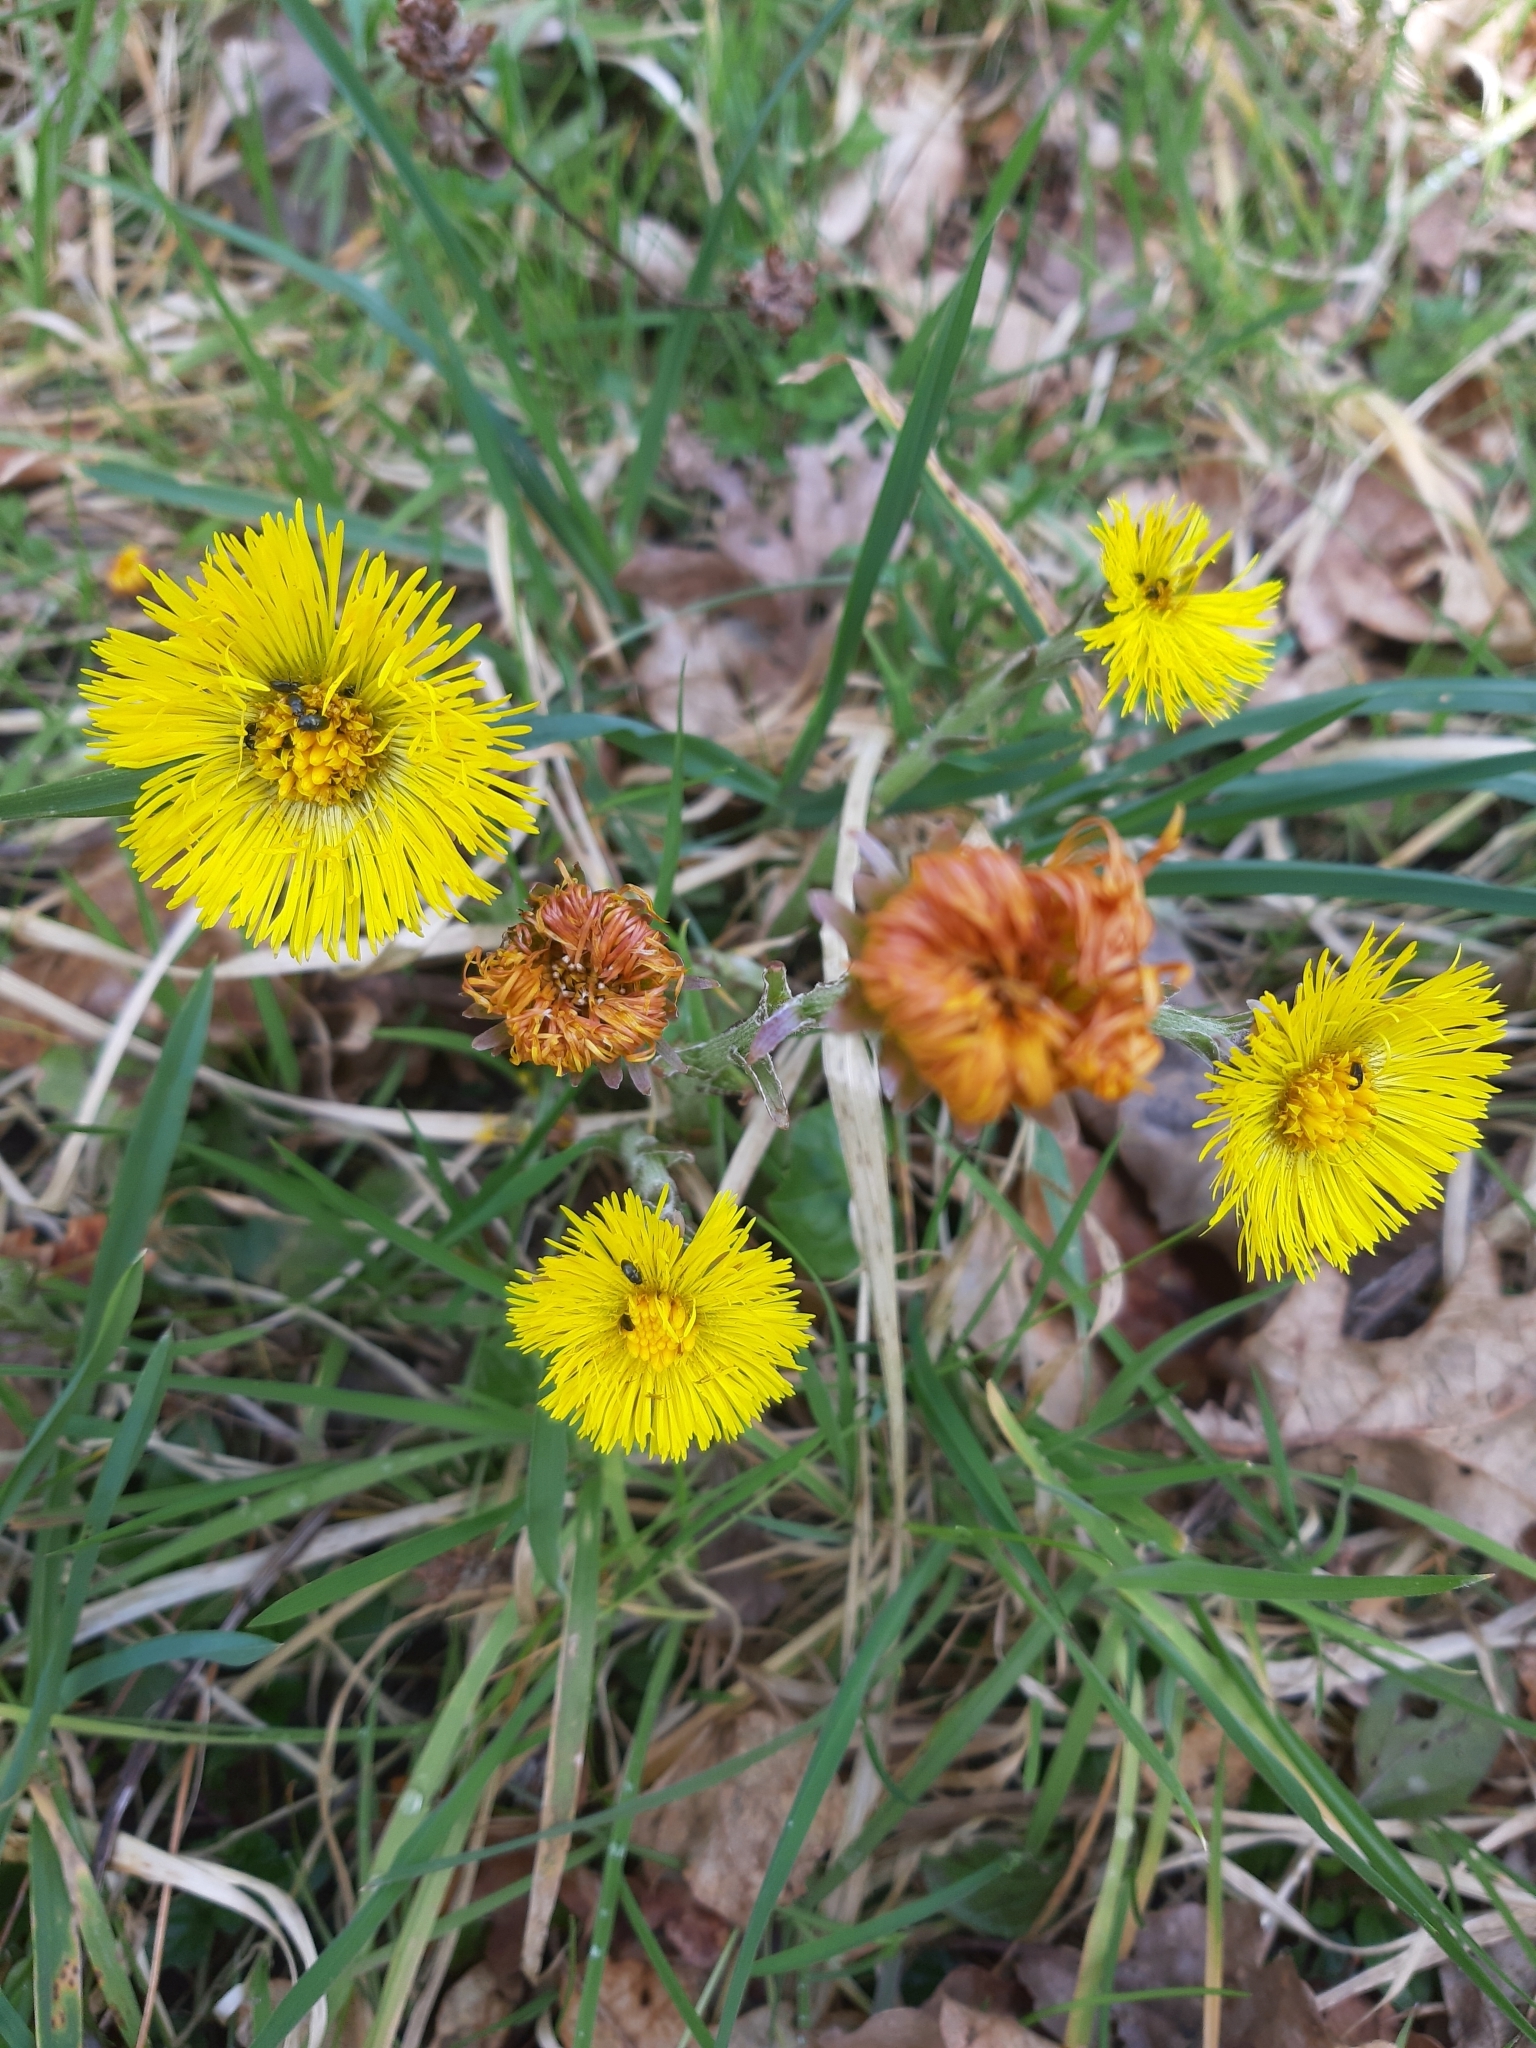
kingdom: Plantae
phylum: Tracheophyta
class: Magnoliopsida
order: Asterales
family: Asteraceae
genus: Tussilago
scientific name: Tussilago farfara
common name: Coltsfoot
